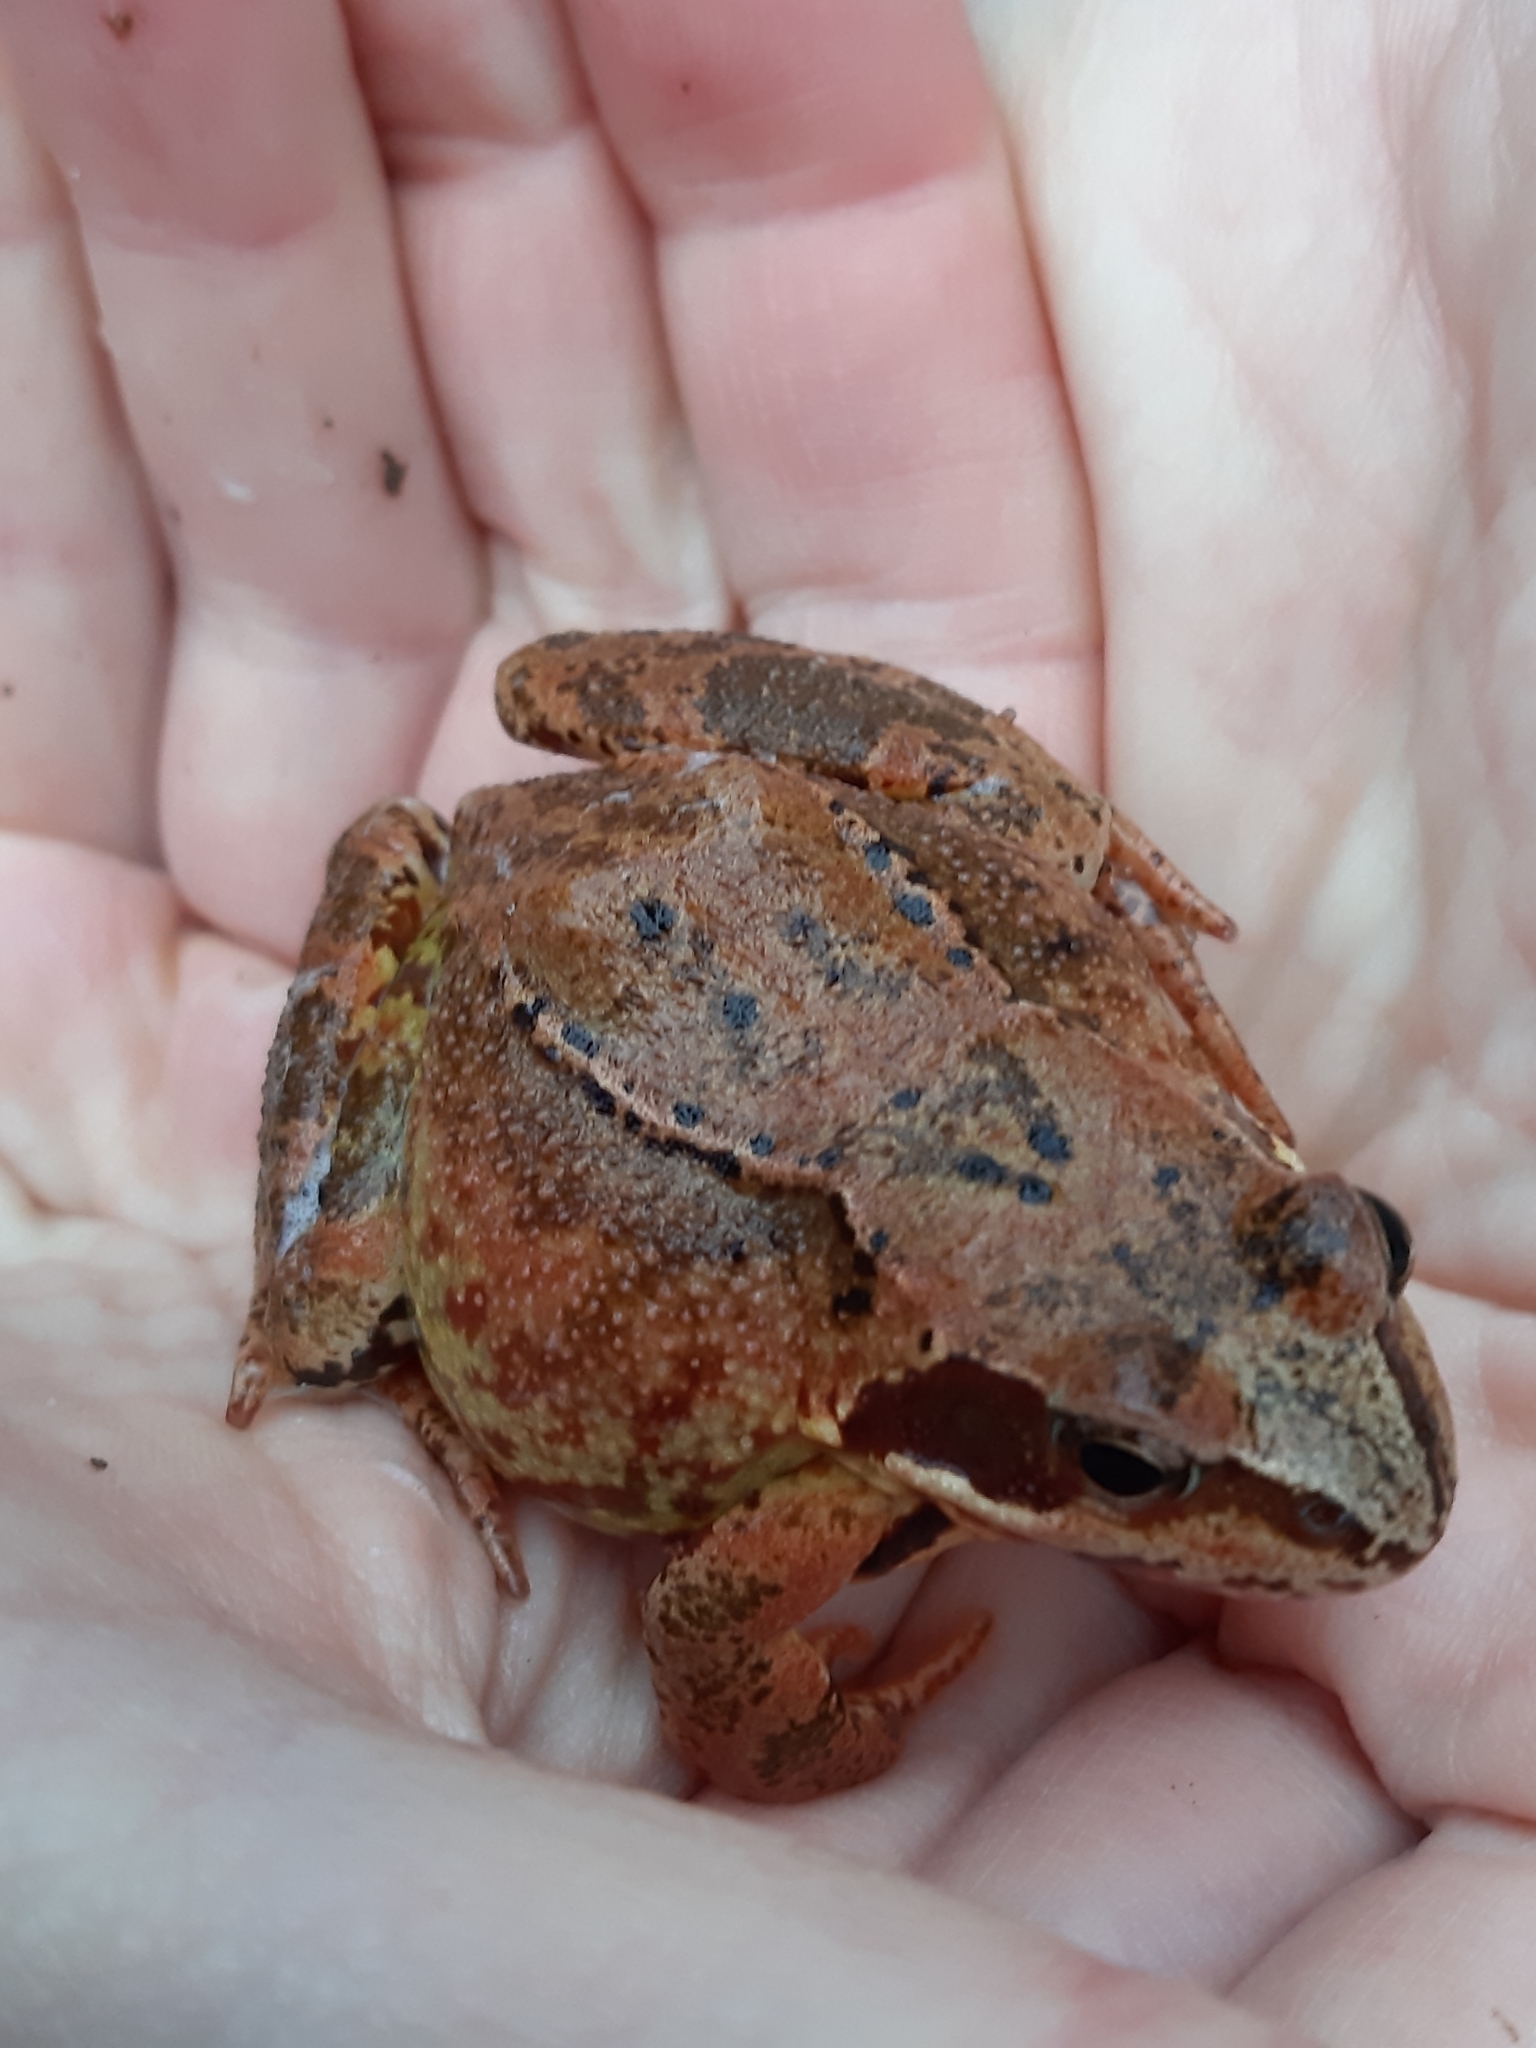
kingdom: Animalia
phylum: Chordata
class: Amphibia
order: Anura
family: Ranidae
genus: Rana
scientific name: Rana temporaria
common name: Common frog
